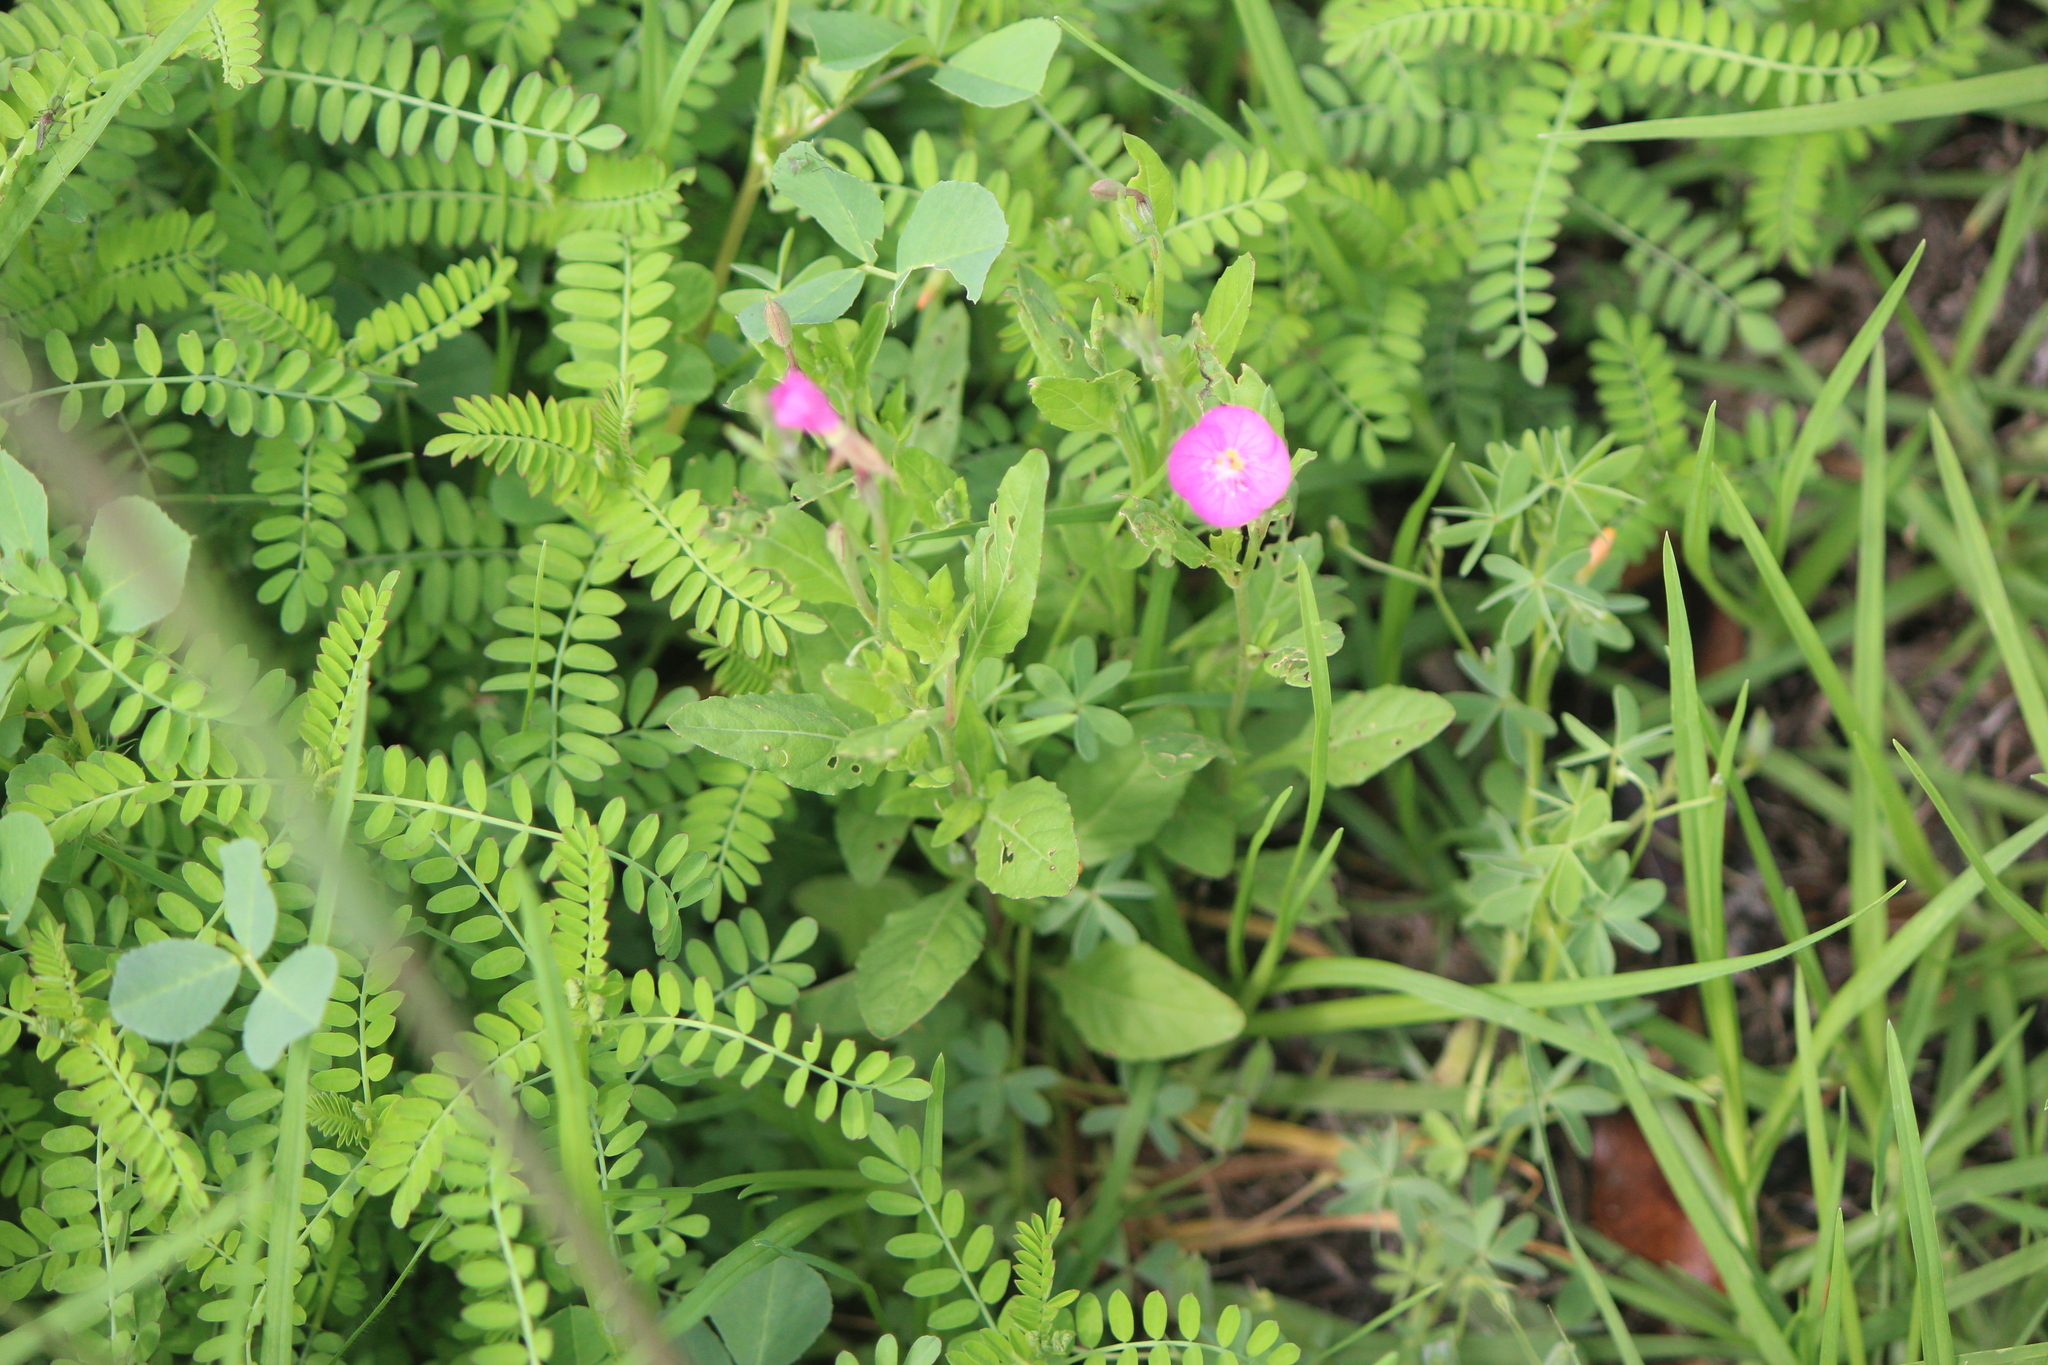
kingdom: Plantae
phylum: Tracheophyta
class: Magnoliopsida
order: Myrtales
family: Onagraceae
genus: Oenothera
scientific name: Oenothera rosea
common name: Rosy evening-primrose
